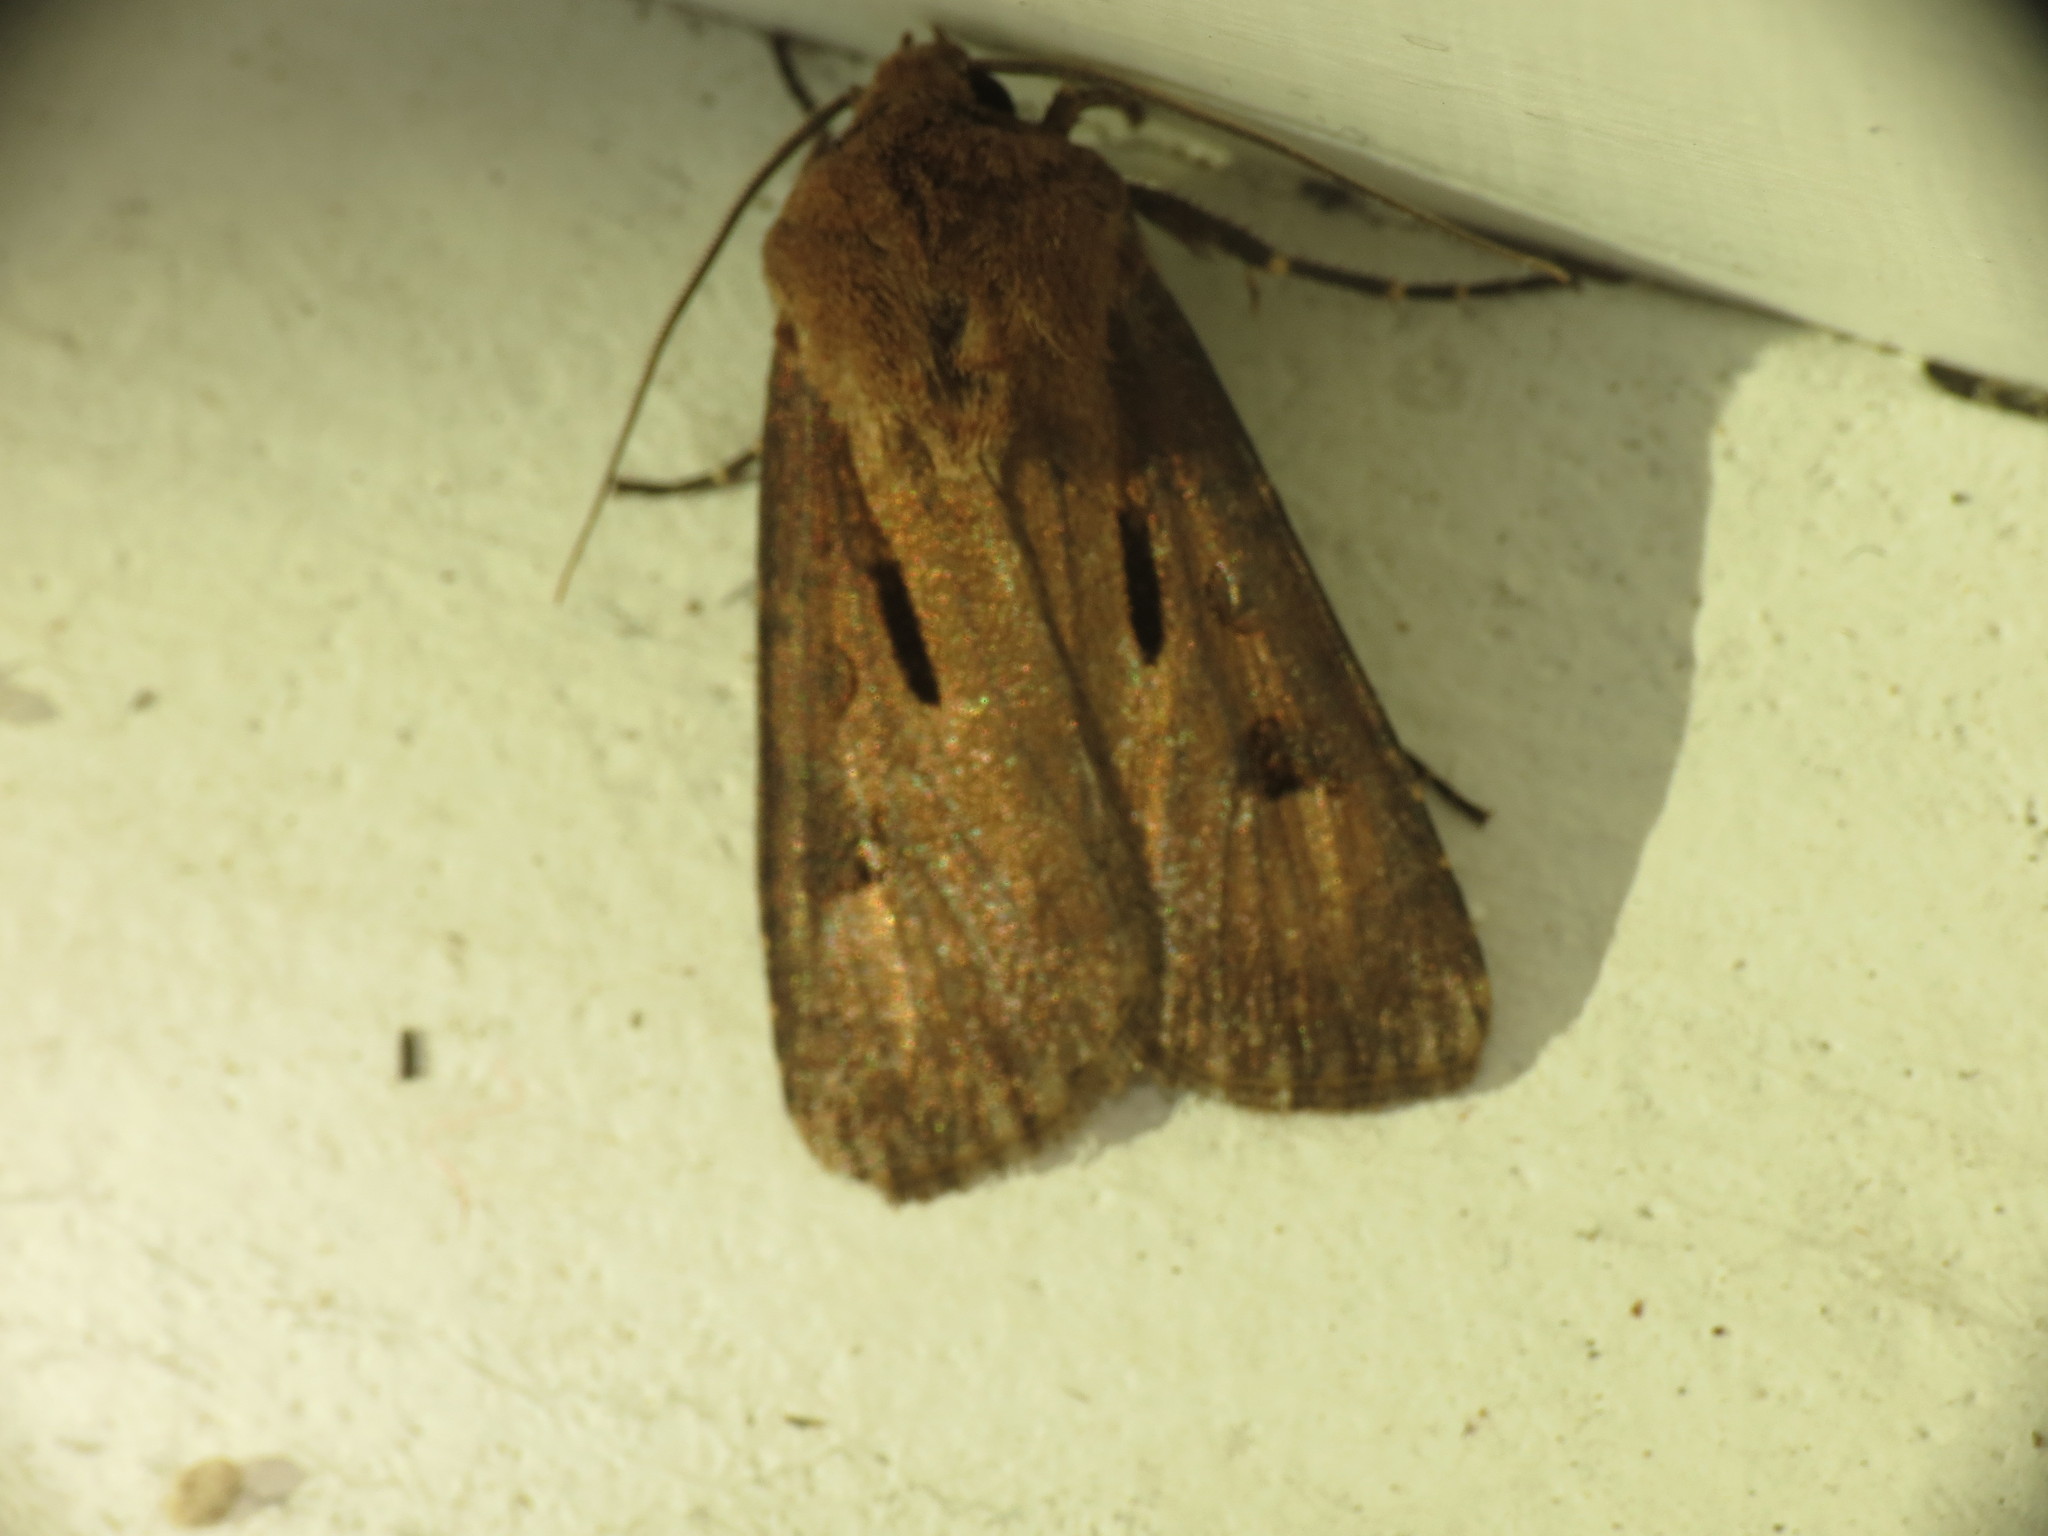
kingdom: Animalia
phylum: Arthropoda
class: Insecta
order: Lepidoptera
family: Noctuidae
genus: Agrotis
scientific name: Agrotis exclamationis
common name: Heart and dart
